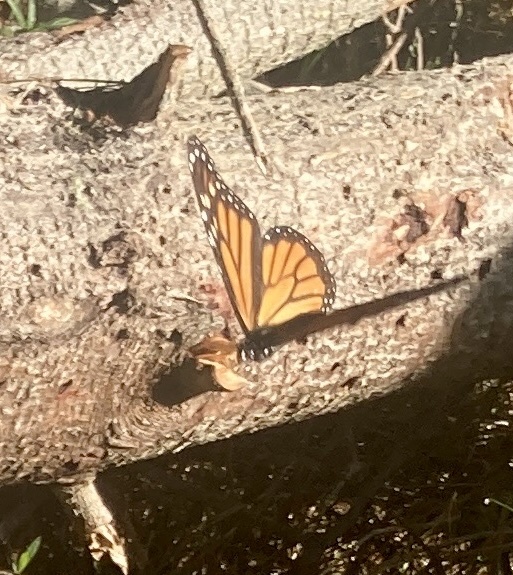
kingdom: Animalia
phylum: Arthropoda
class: Insecta
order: Lepidoptera
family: Nymphalidae
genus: Danaus
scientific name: Danaus plexippus
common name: Monarch
